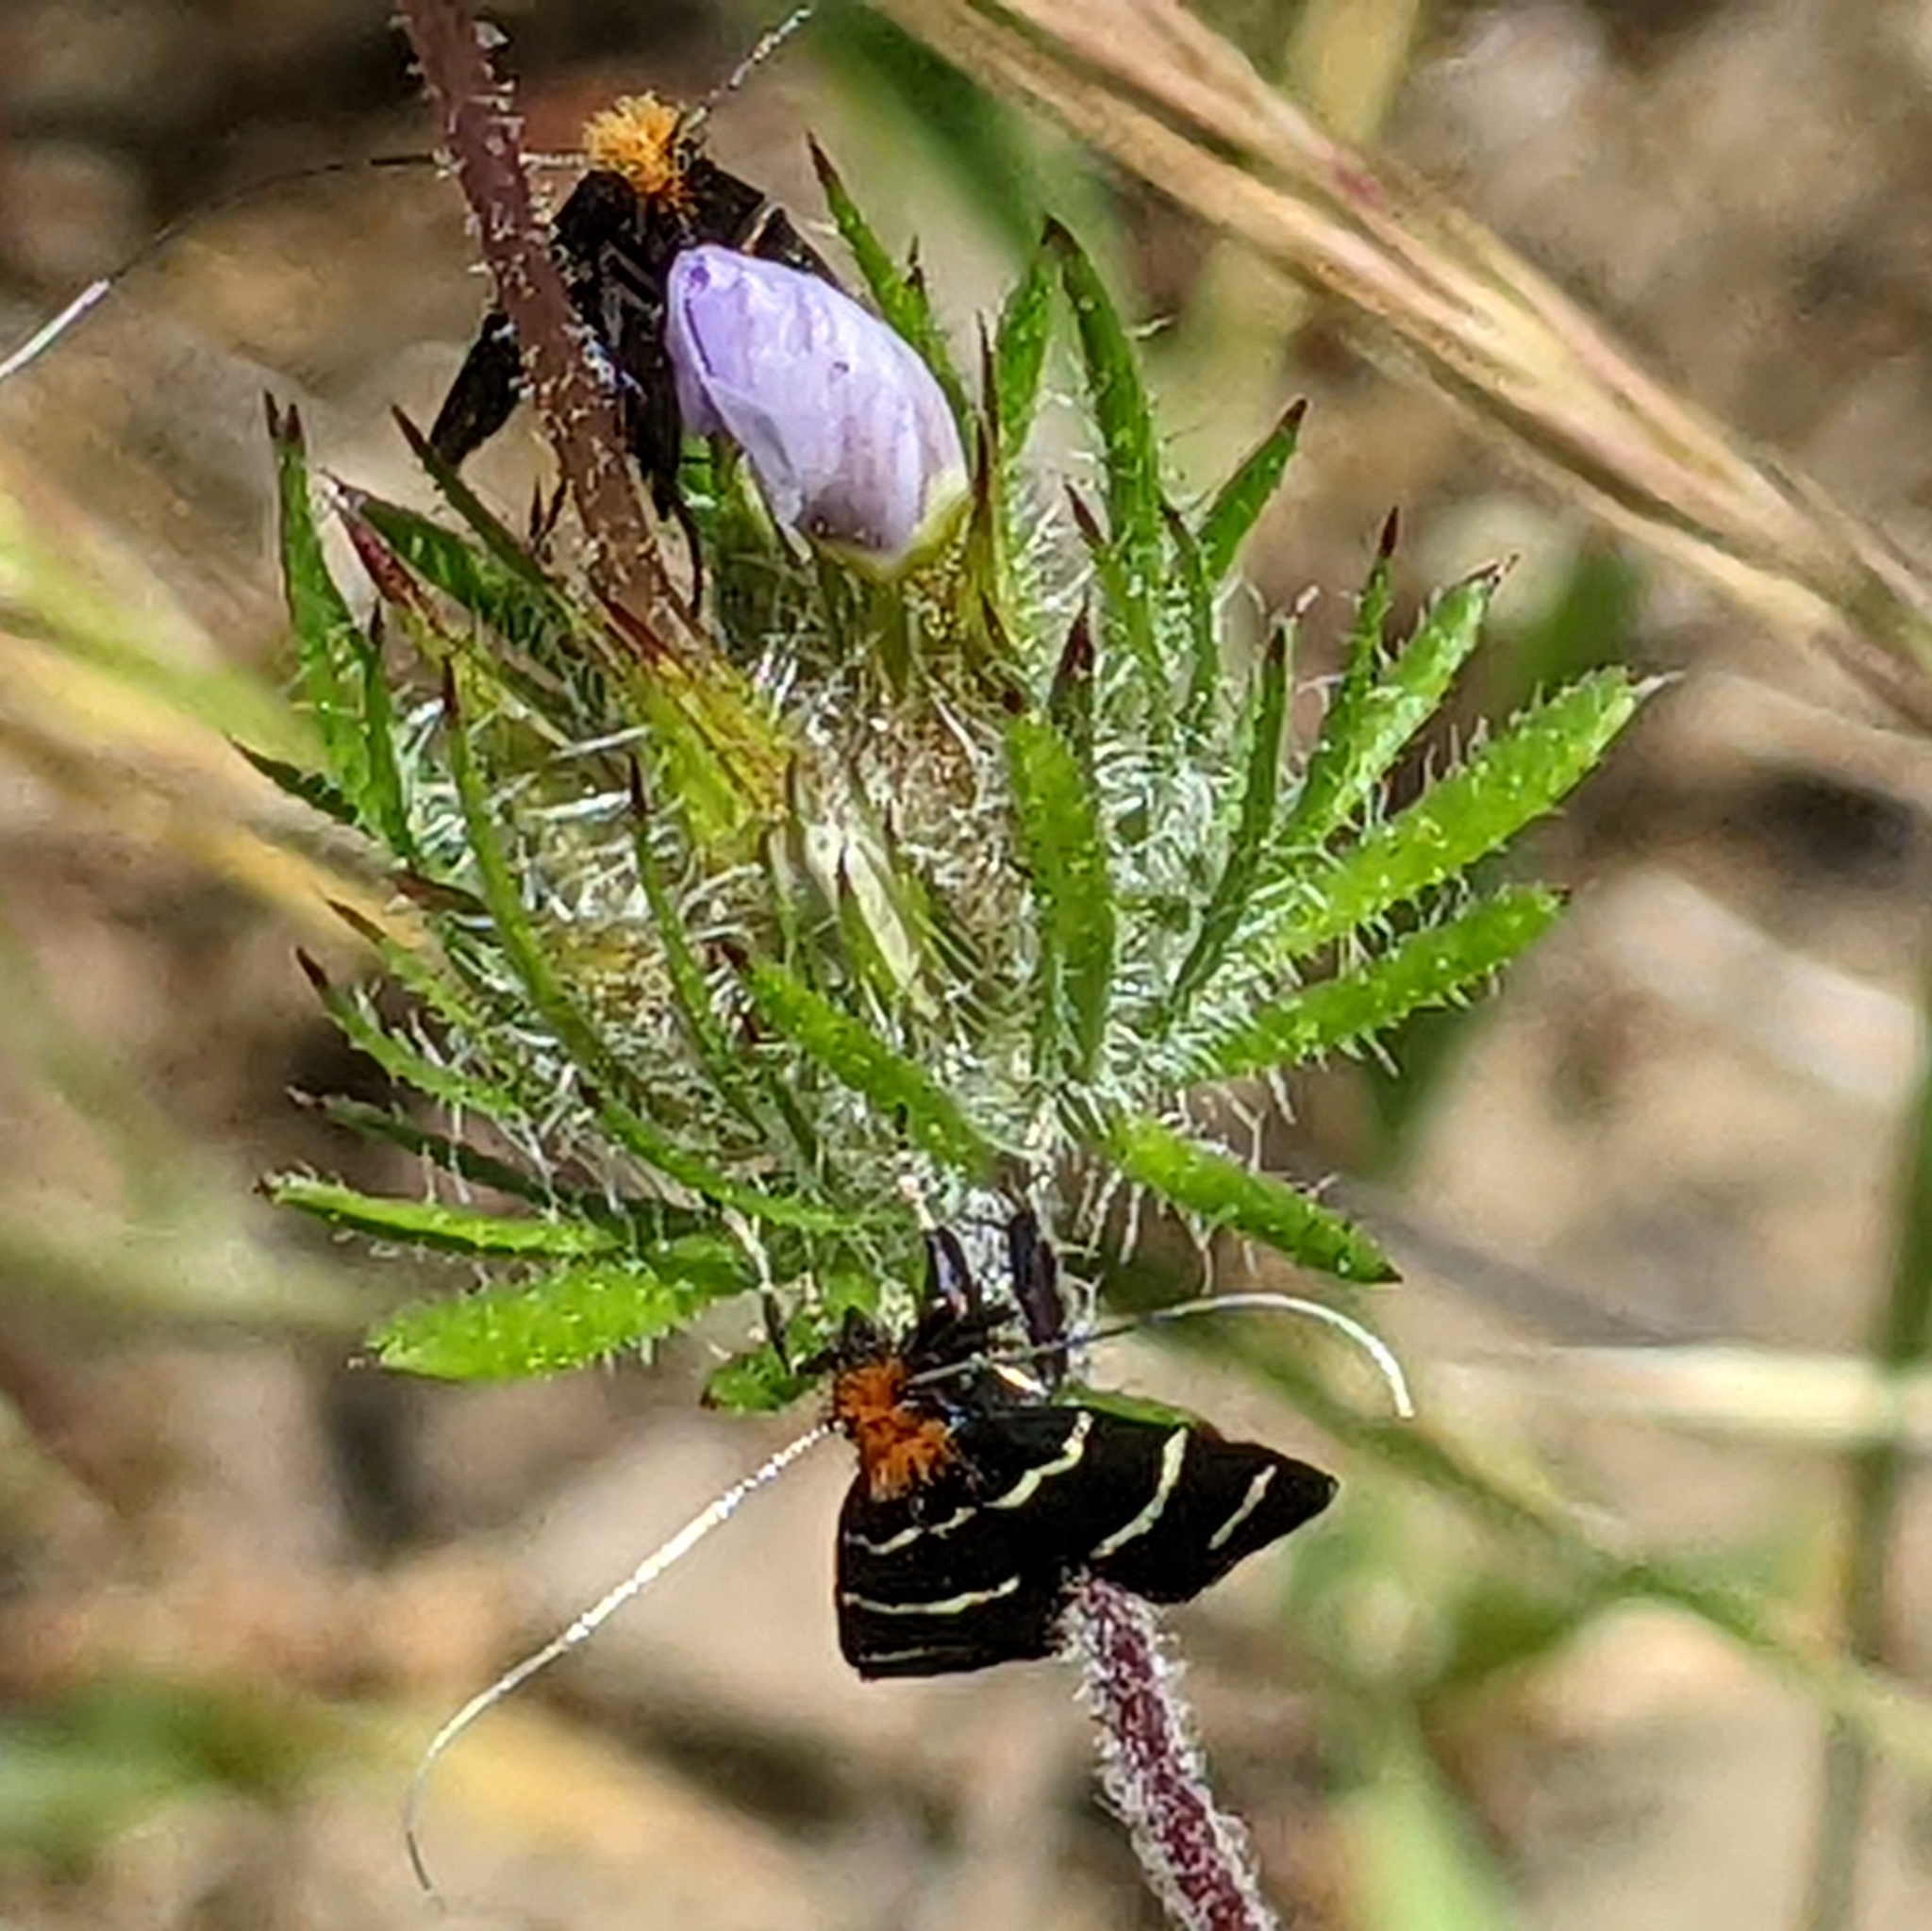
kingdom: Animalia
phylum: Arthropoda
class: Insecta
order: Lepidoptera
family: Adelidae
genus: Adela
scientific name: Adela trigrapha
